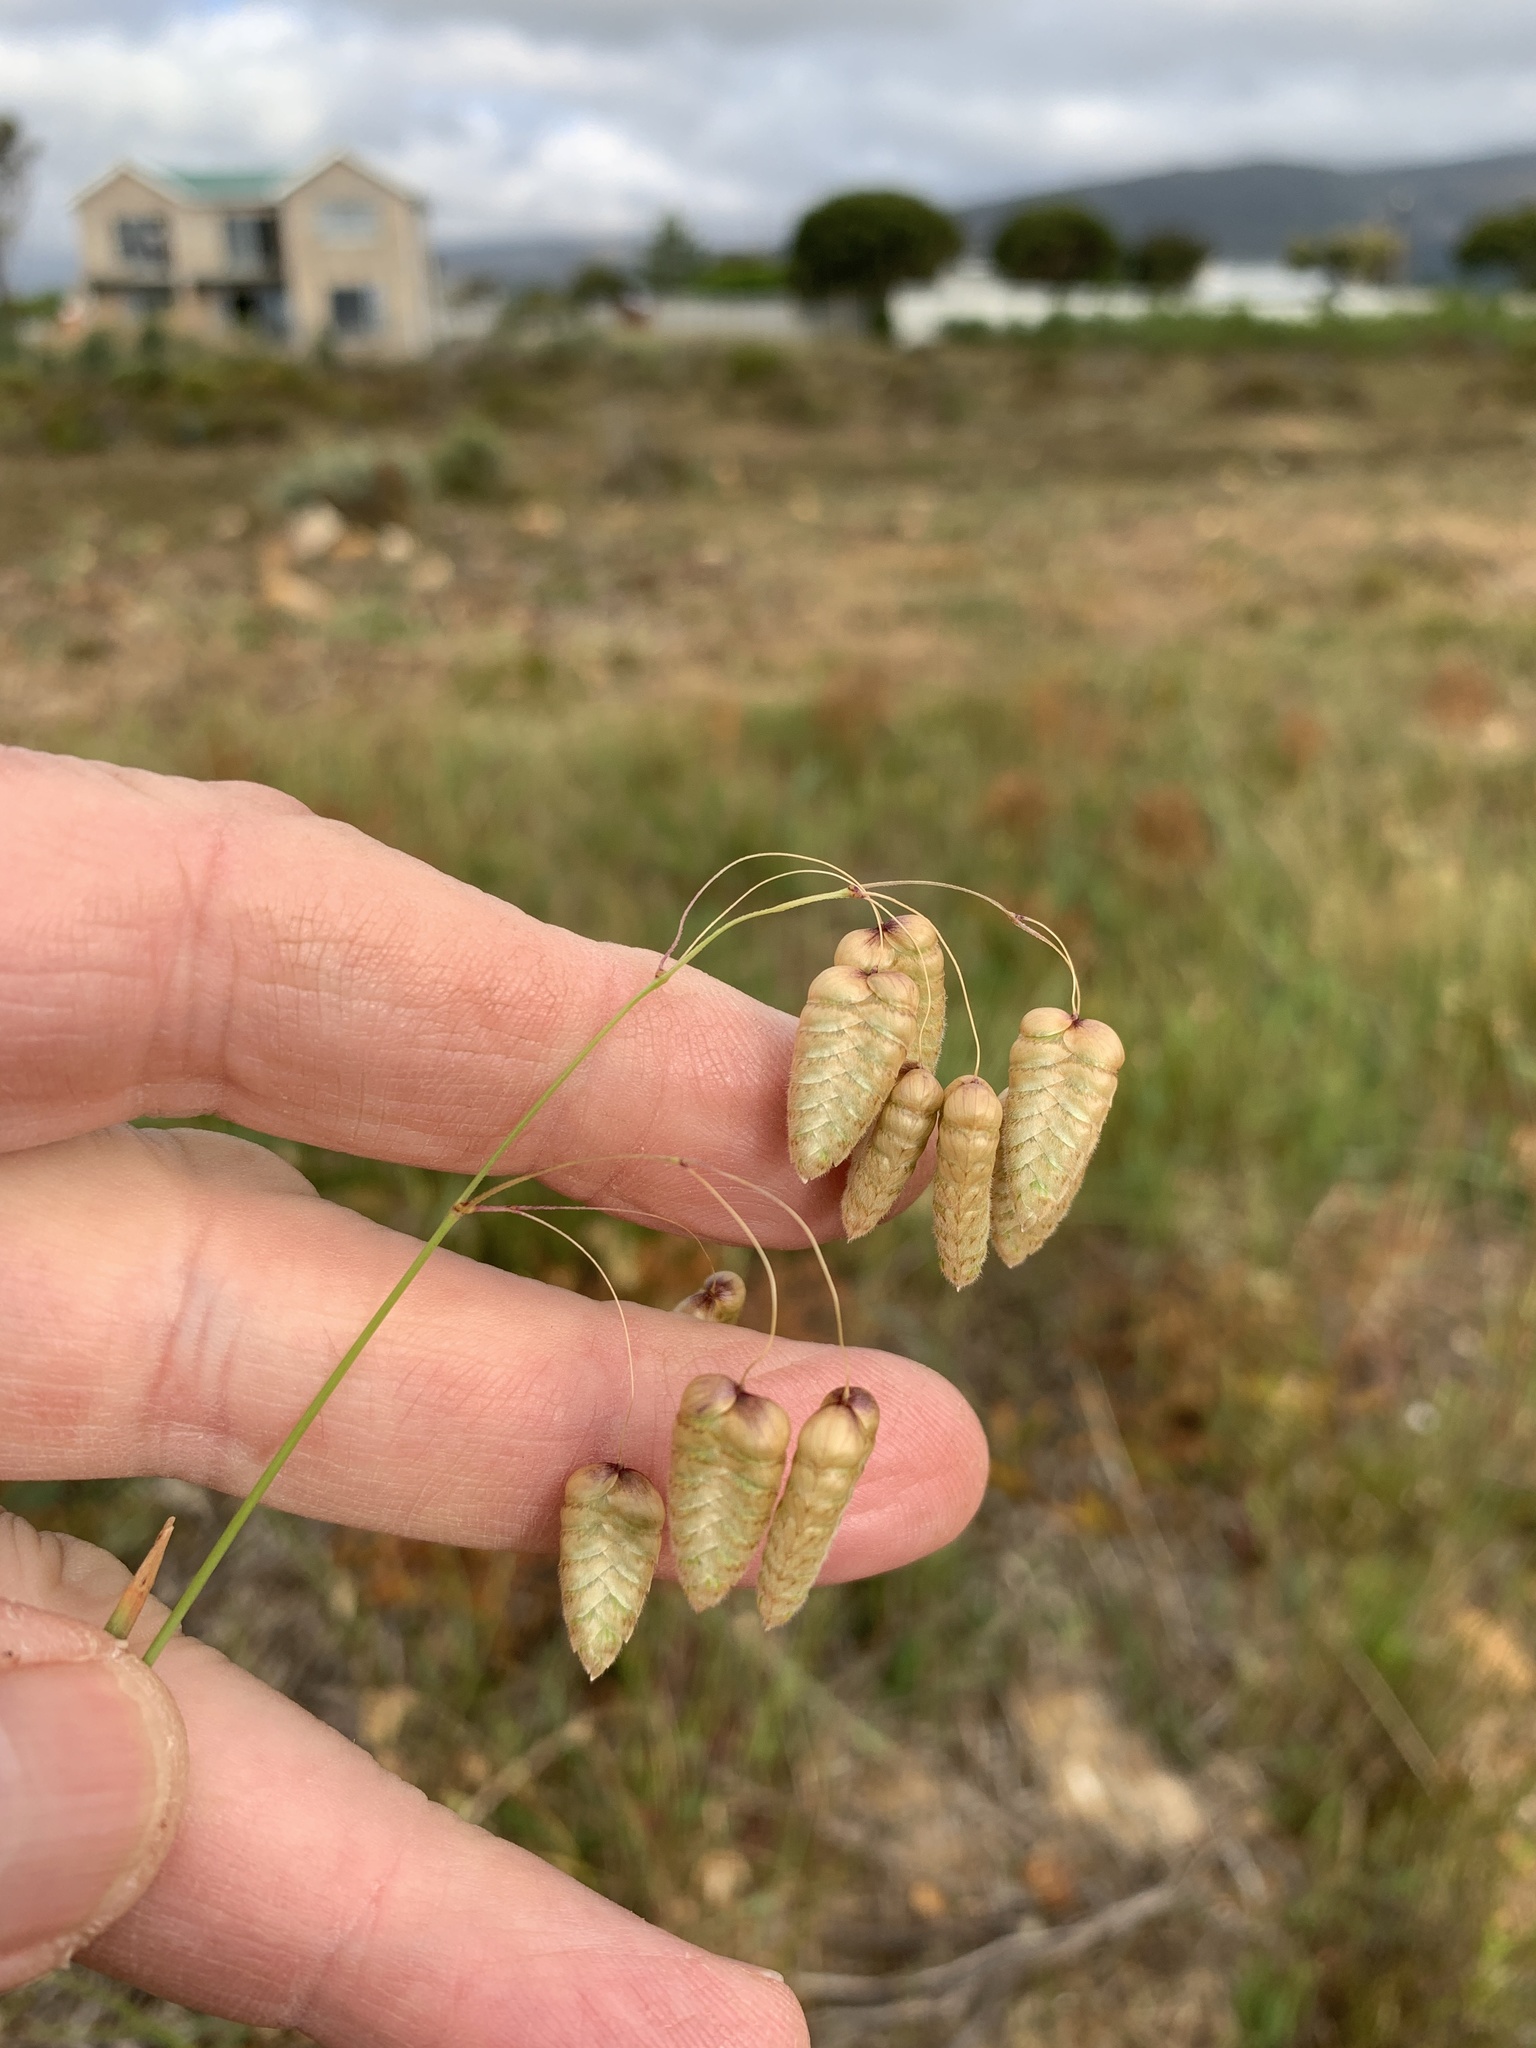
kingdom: Plantae
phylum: Tracheophyta
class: Liliopsida
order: Poales
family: Poaceae
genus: Briza
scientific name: Briza maxima
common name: Big quakinggrass
